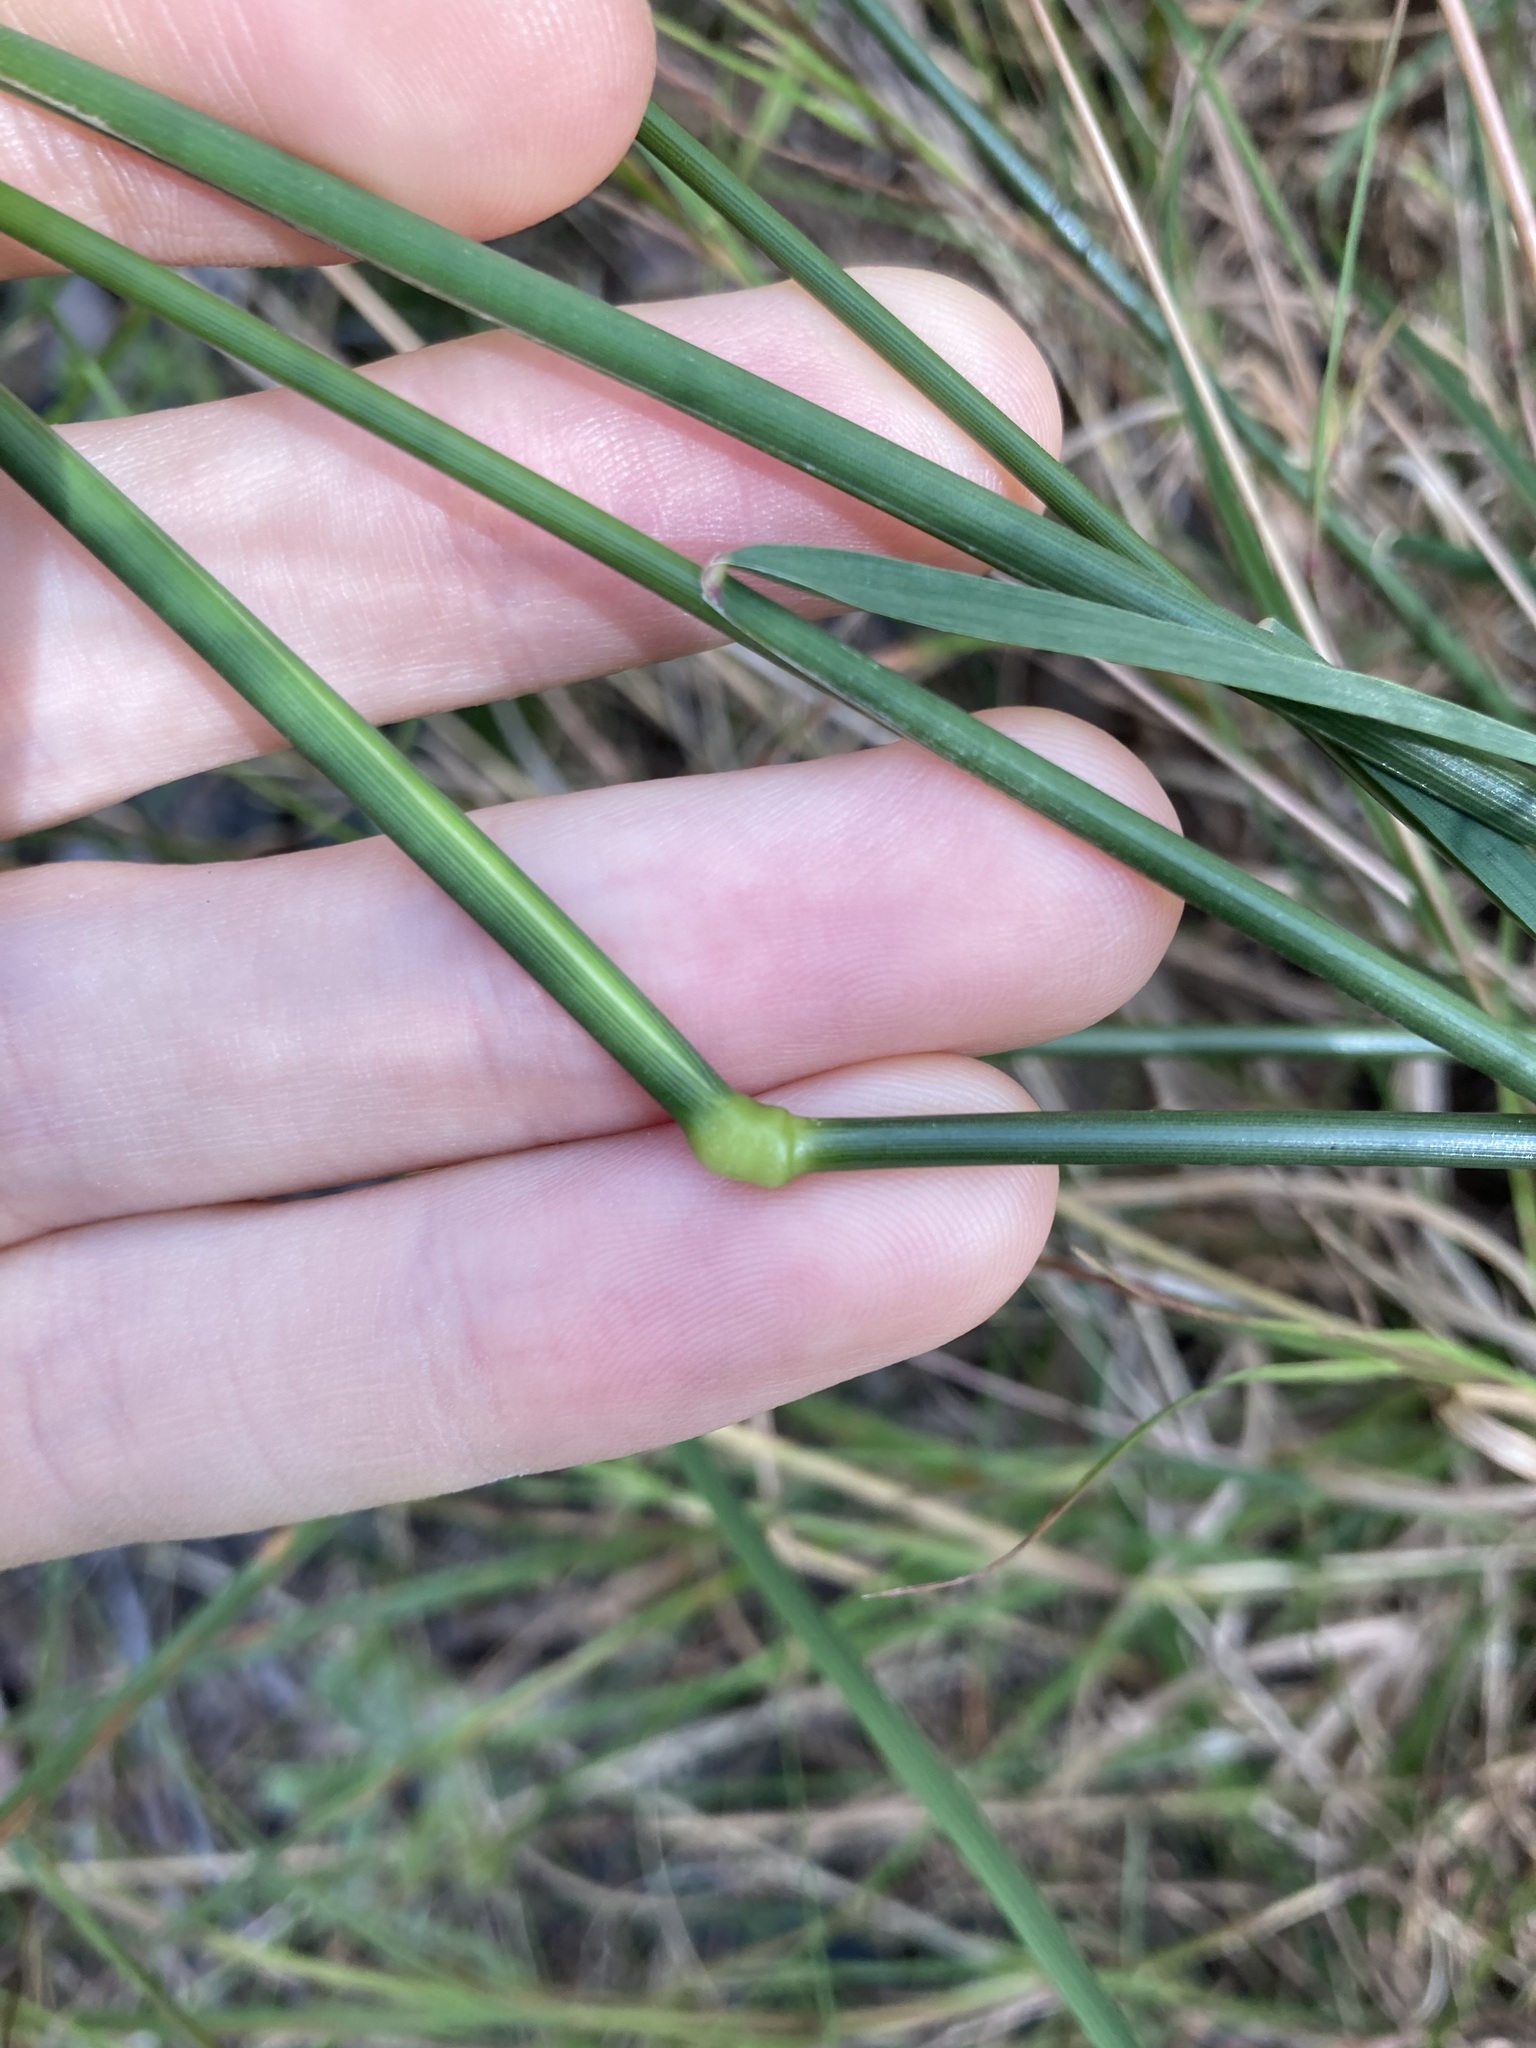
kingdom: Plantae
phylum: Tracheophyta
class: Liliopsida
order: Poales
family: Poaceae
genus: Dichelachne
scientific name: Dichelachne micrantha
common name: Plumegrass
